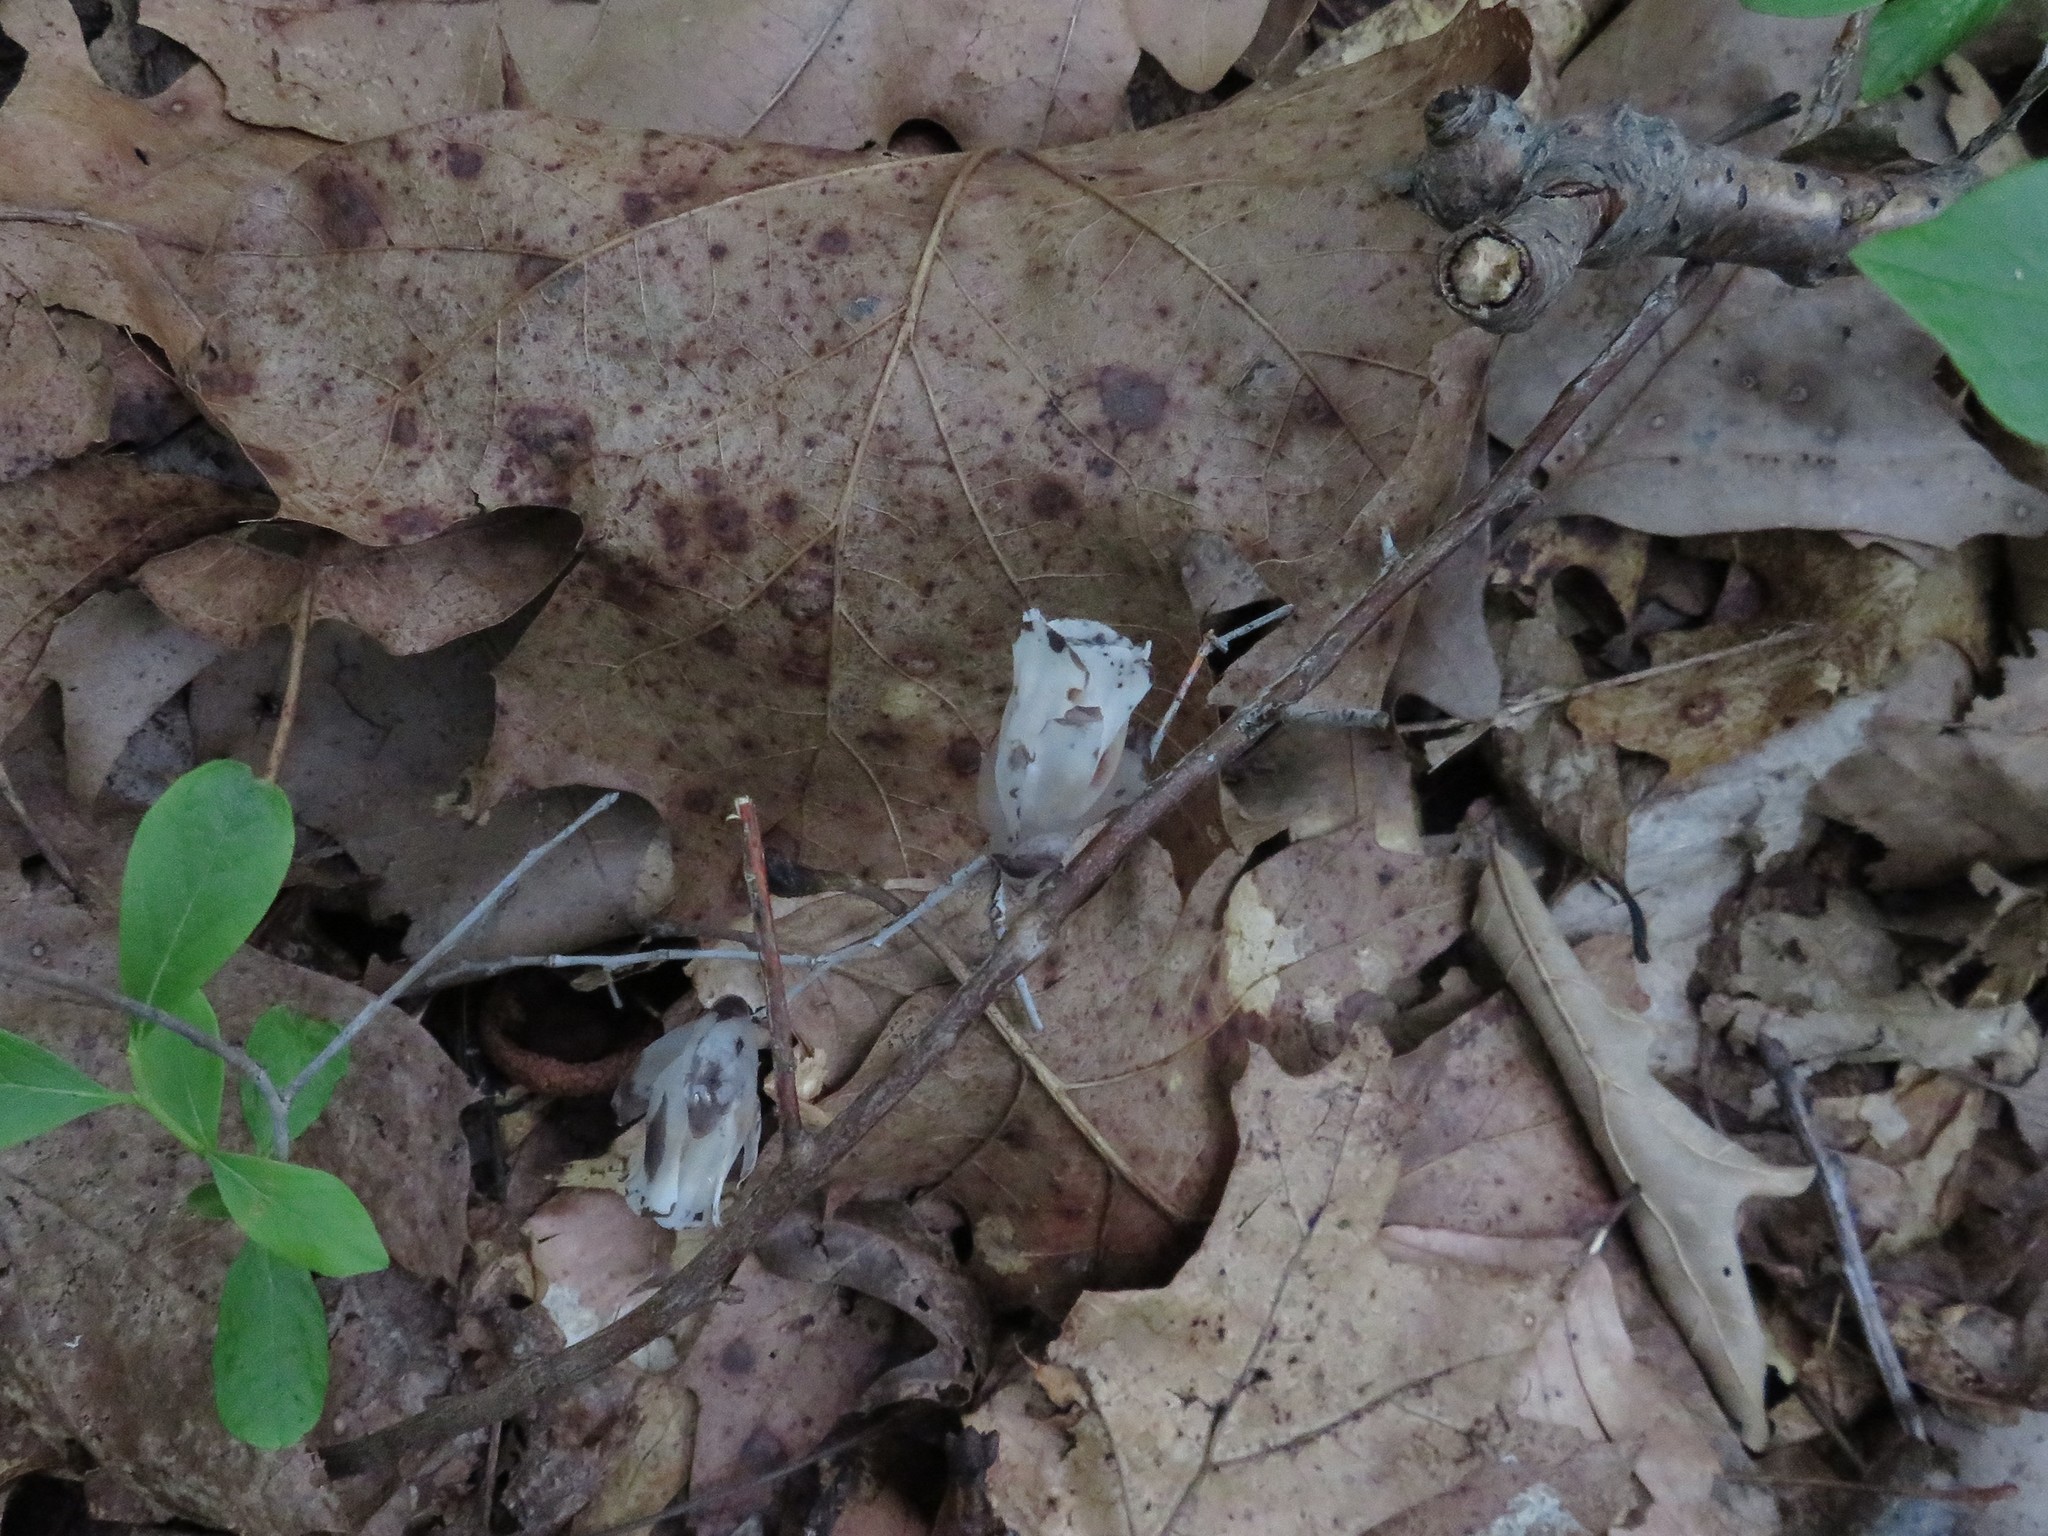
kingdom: Plantae
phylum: Tracheophyta
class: Magnoliopsida
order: Ericales
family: Ericaceae
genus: Monotropa
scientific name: Monotropa uniflora
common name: Convulsion root
